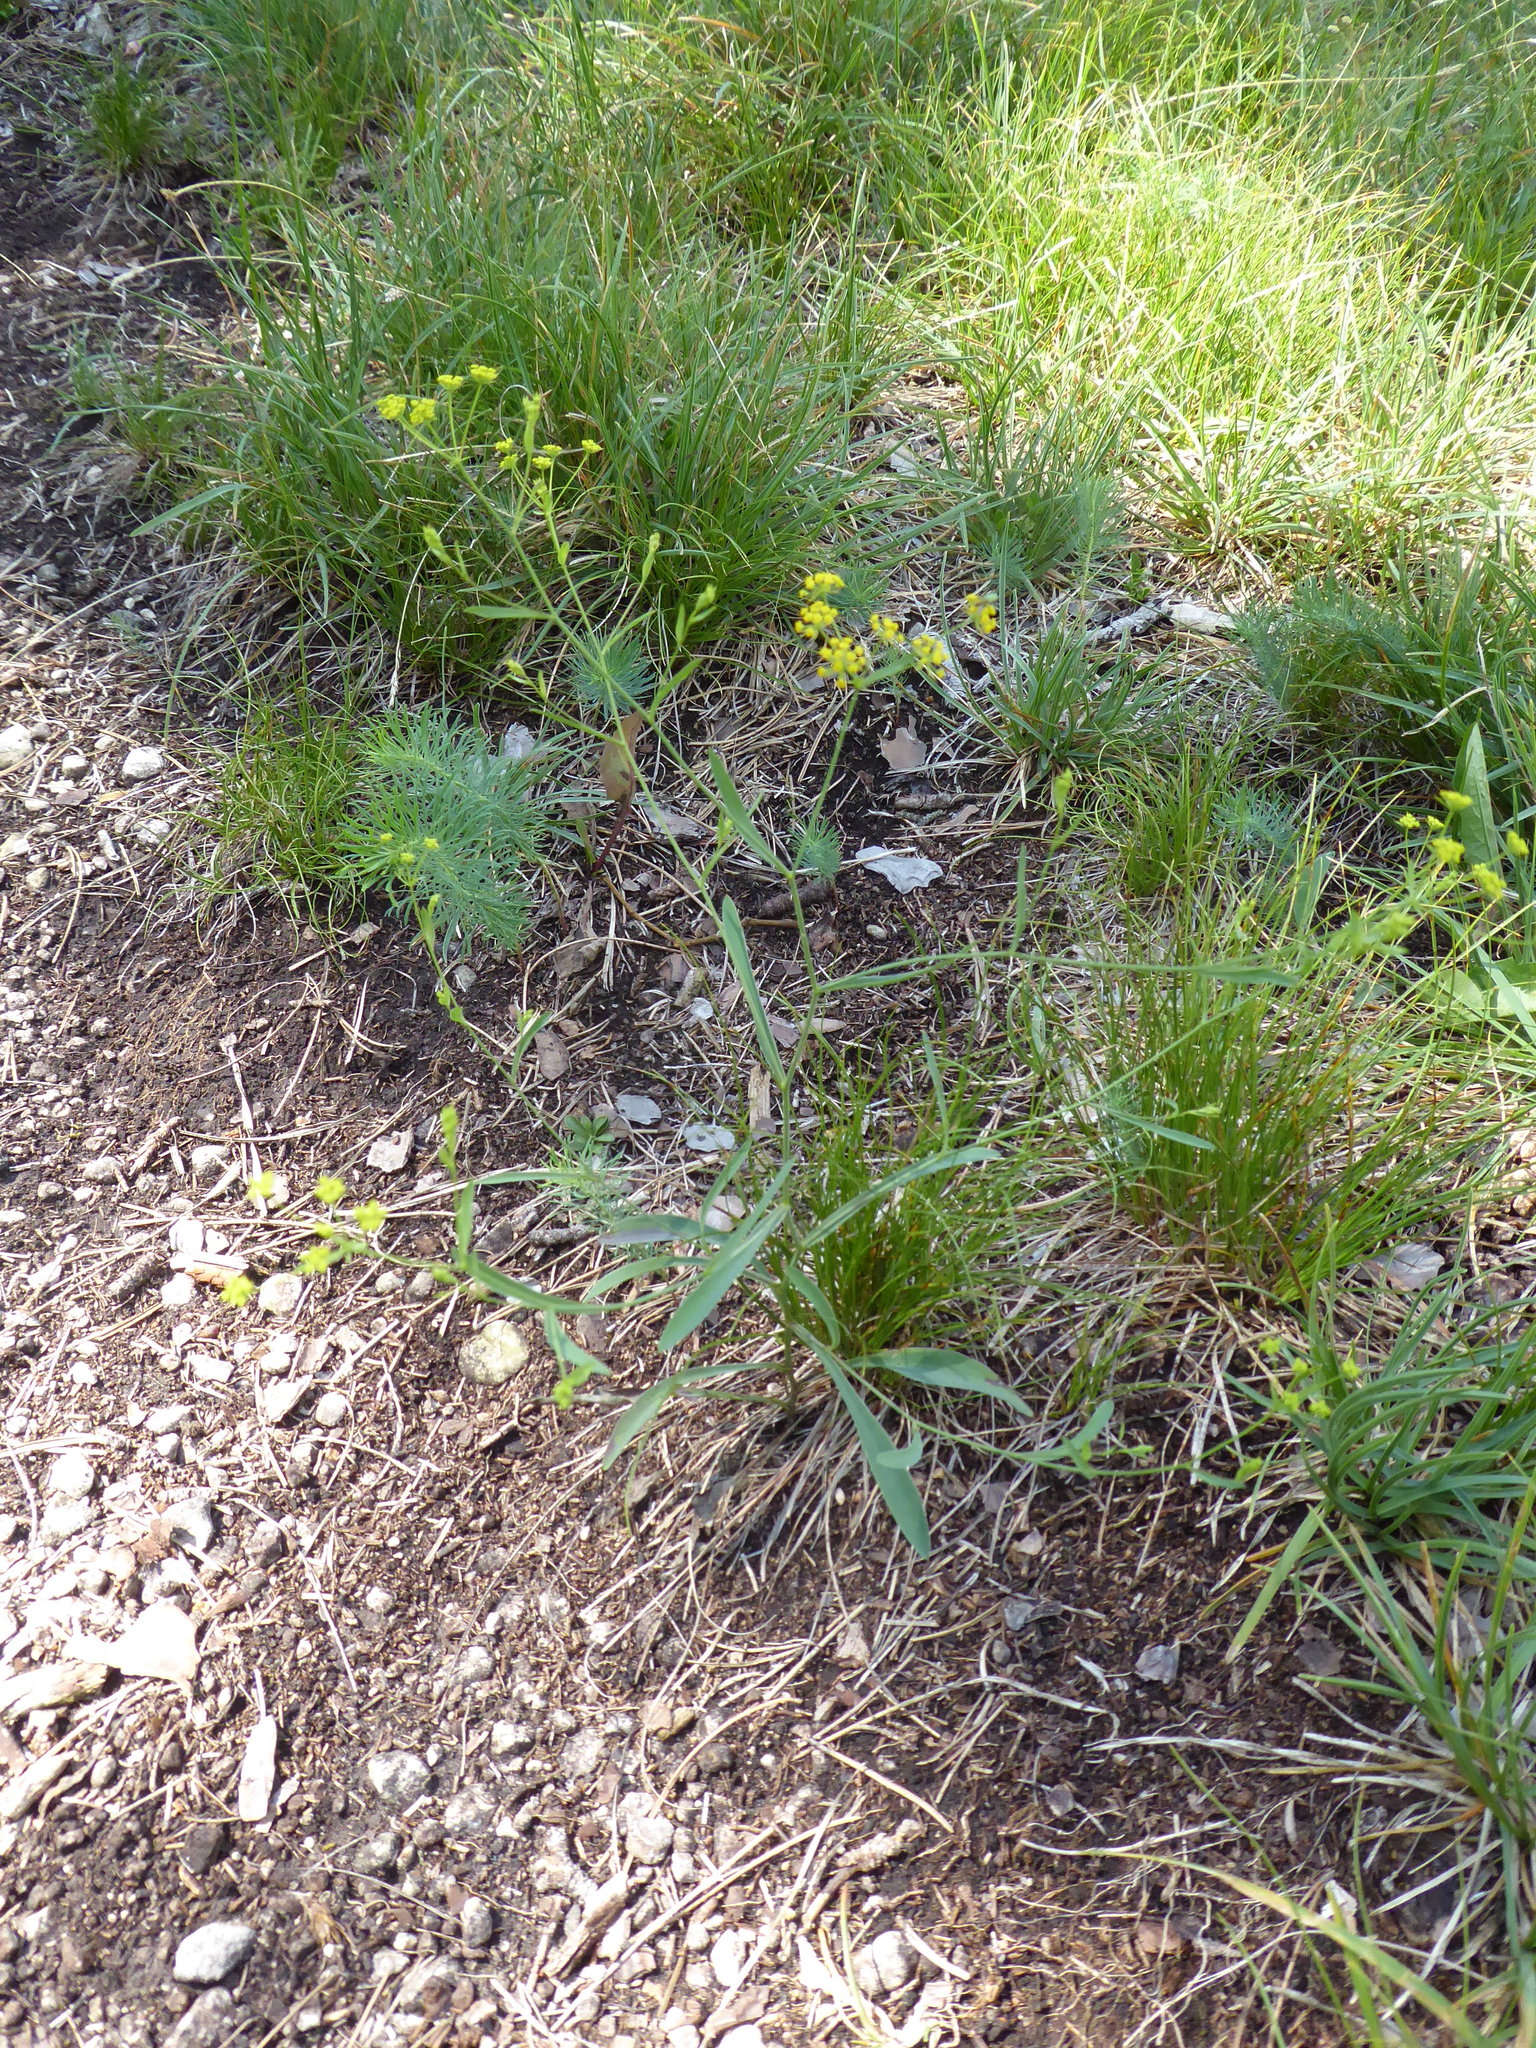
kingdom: Plantae
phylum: Tracheophyta
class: Magnoliopsida
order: Apiales
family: Apiaceae
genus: Bupleurum
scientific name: Bupleurum falcatum
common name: Sickle-leaved hare's-ear
